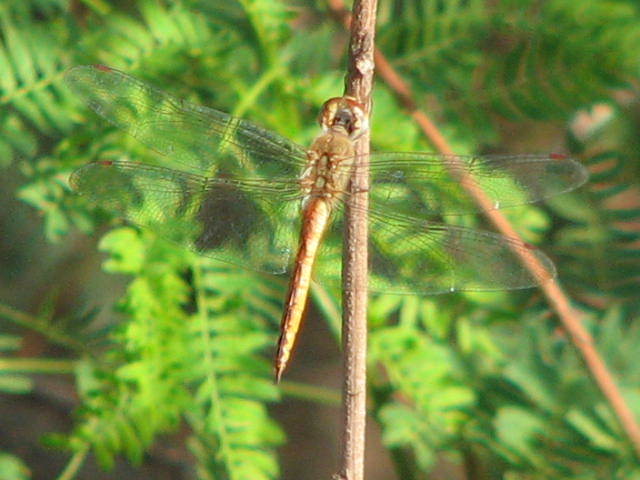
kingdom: Animalia
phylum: Arthropoda
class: Insecta
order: Odonata
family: Libellulidae
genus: Pantala
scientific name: Pantala flavescens
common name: Wandering glider
